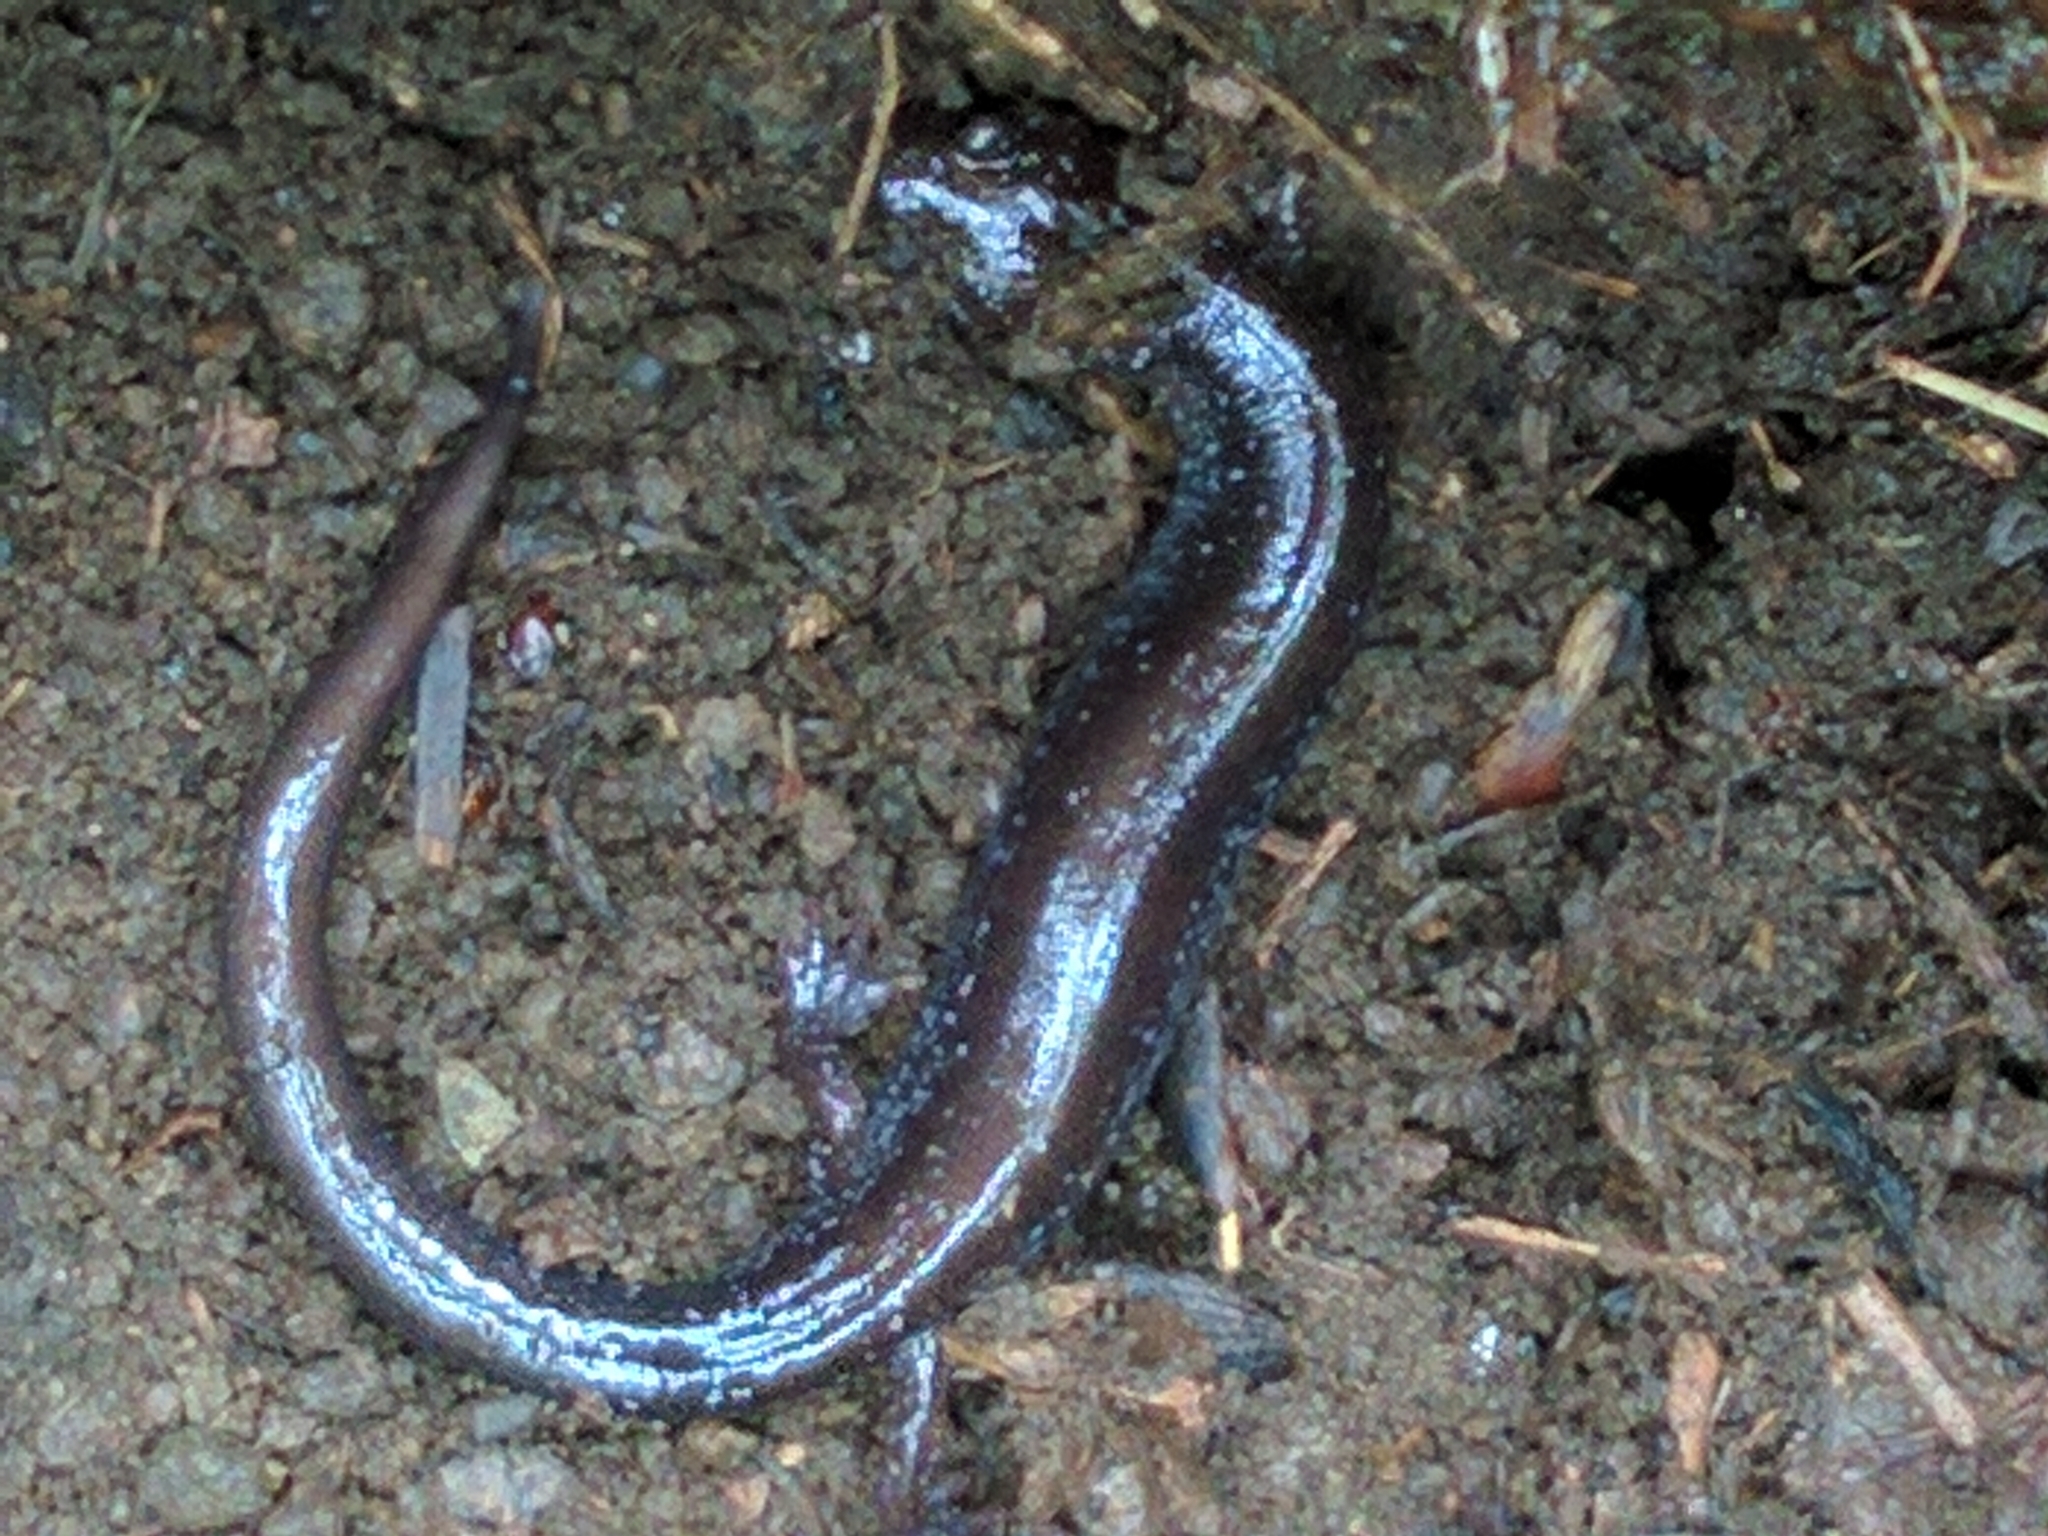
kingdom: Animalia
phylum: Chordata
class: Amphibia
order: Caudata
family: Plethodontidae
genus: Plethodon
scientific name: Plethodon cinereus
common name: Redback salamander
